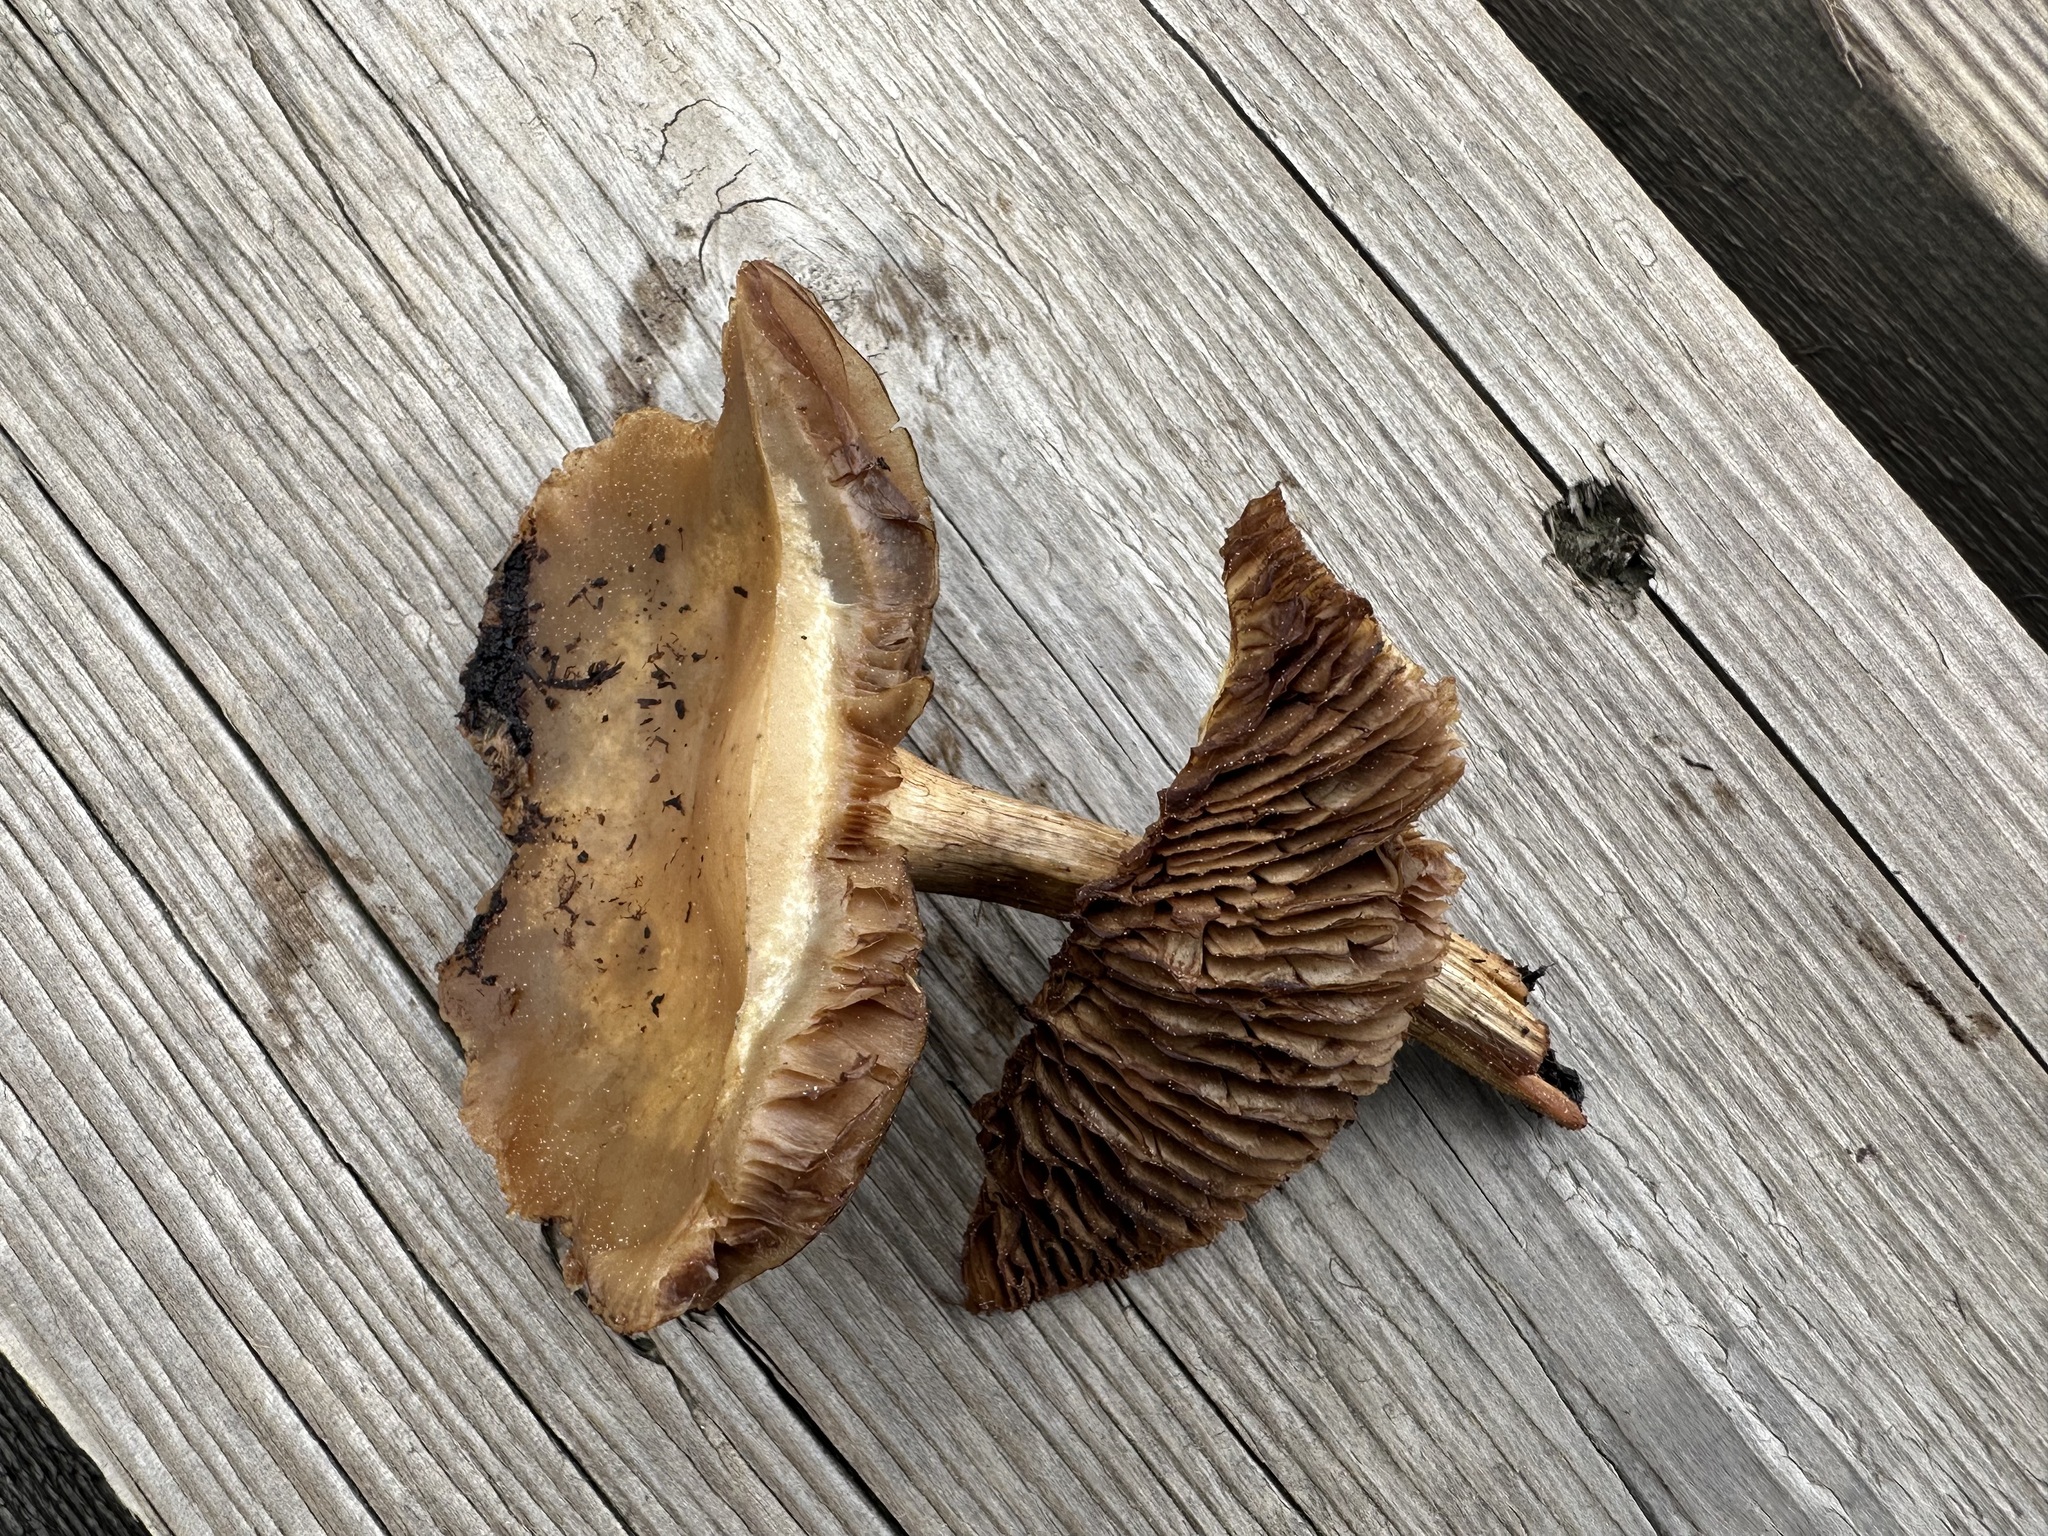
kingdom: Fungi
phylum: Basidiomycota
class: Agaricomycetes
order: Agaricales
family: Strophariaceae
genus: Agrocybe
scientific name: Agrocybe elatella
